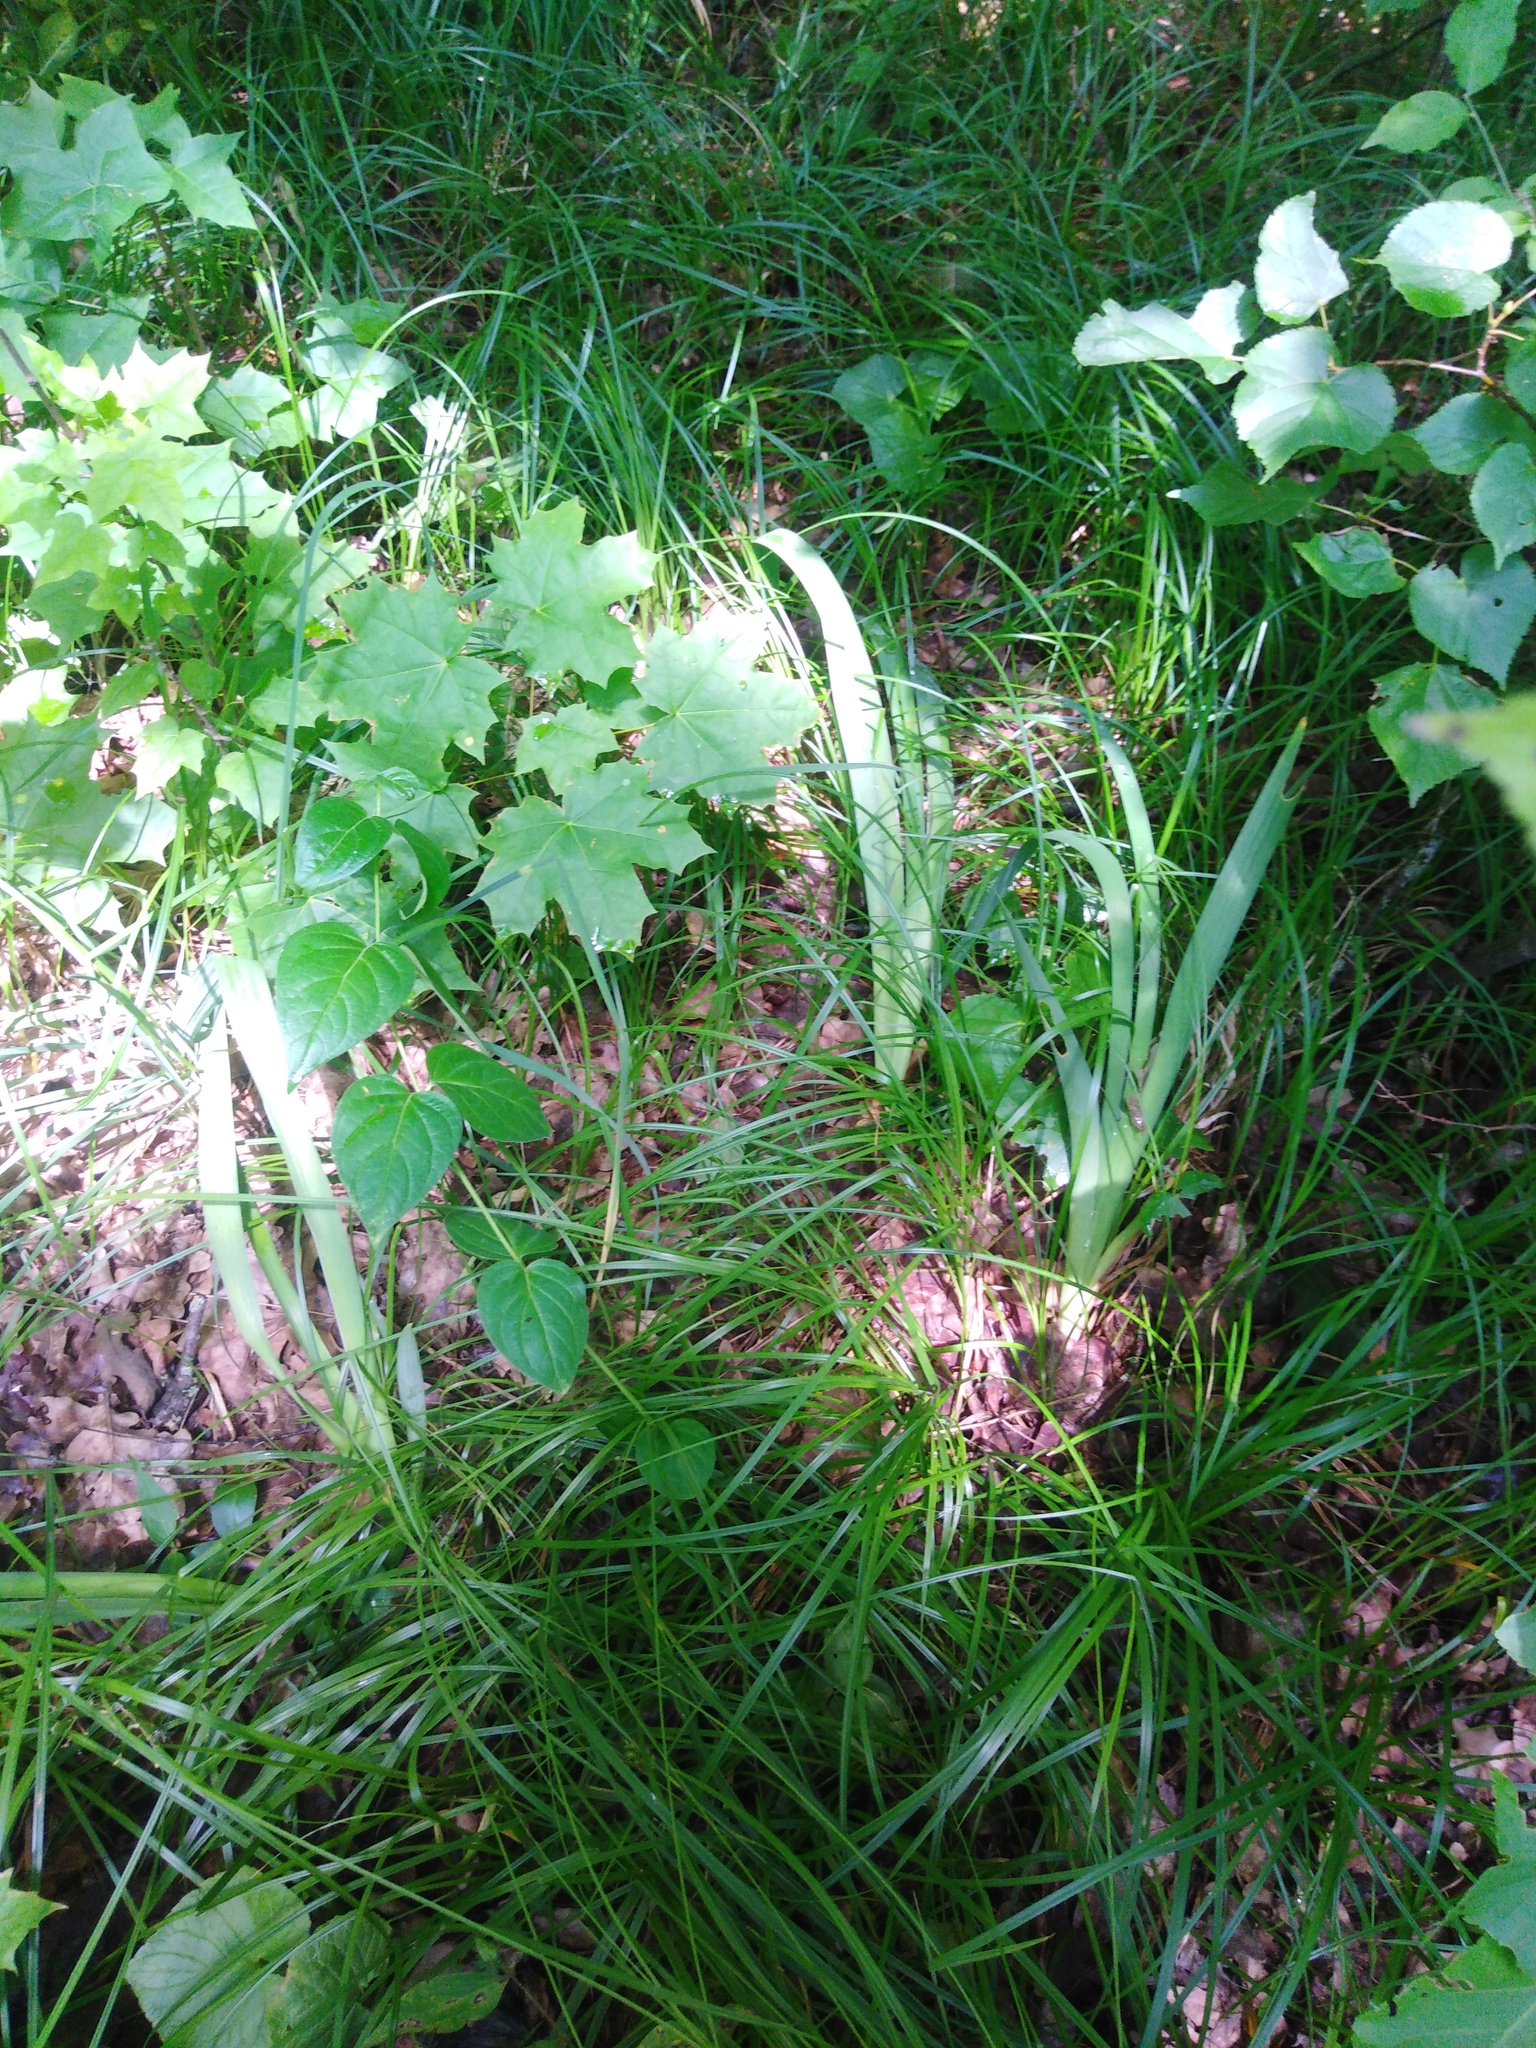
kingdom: Plantae
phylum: Tracheophyta
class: Liliopsida
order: Asparagales
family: Iridaceae
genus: Iris
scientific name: Iris aphylla
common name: Stool iris
